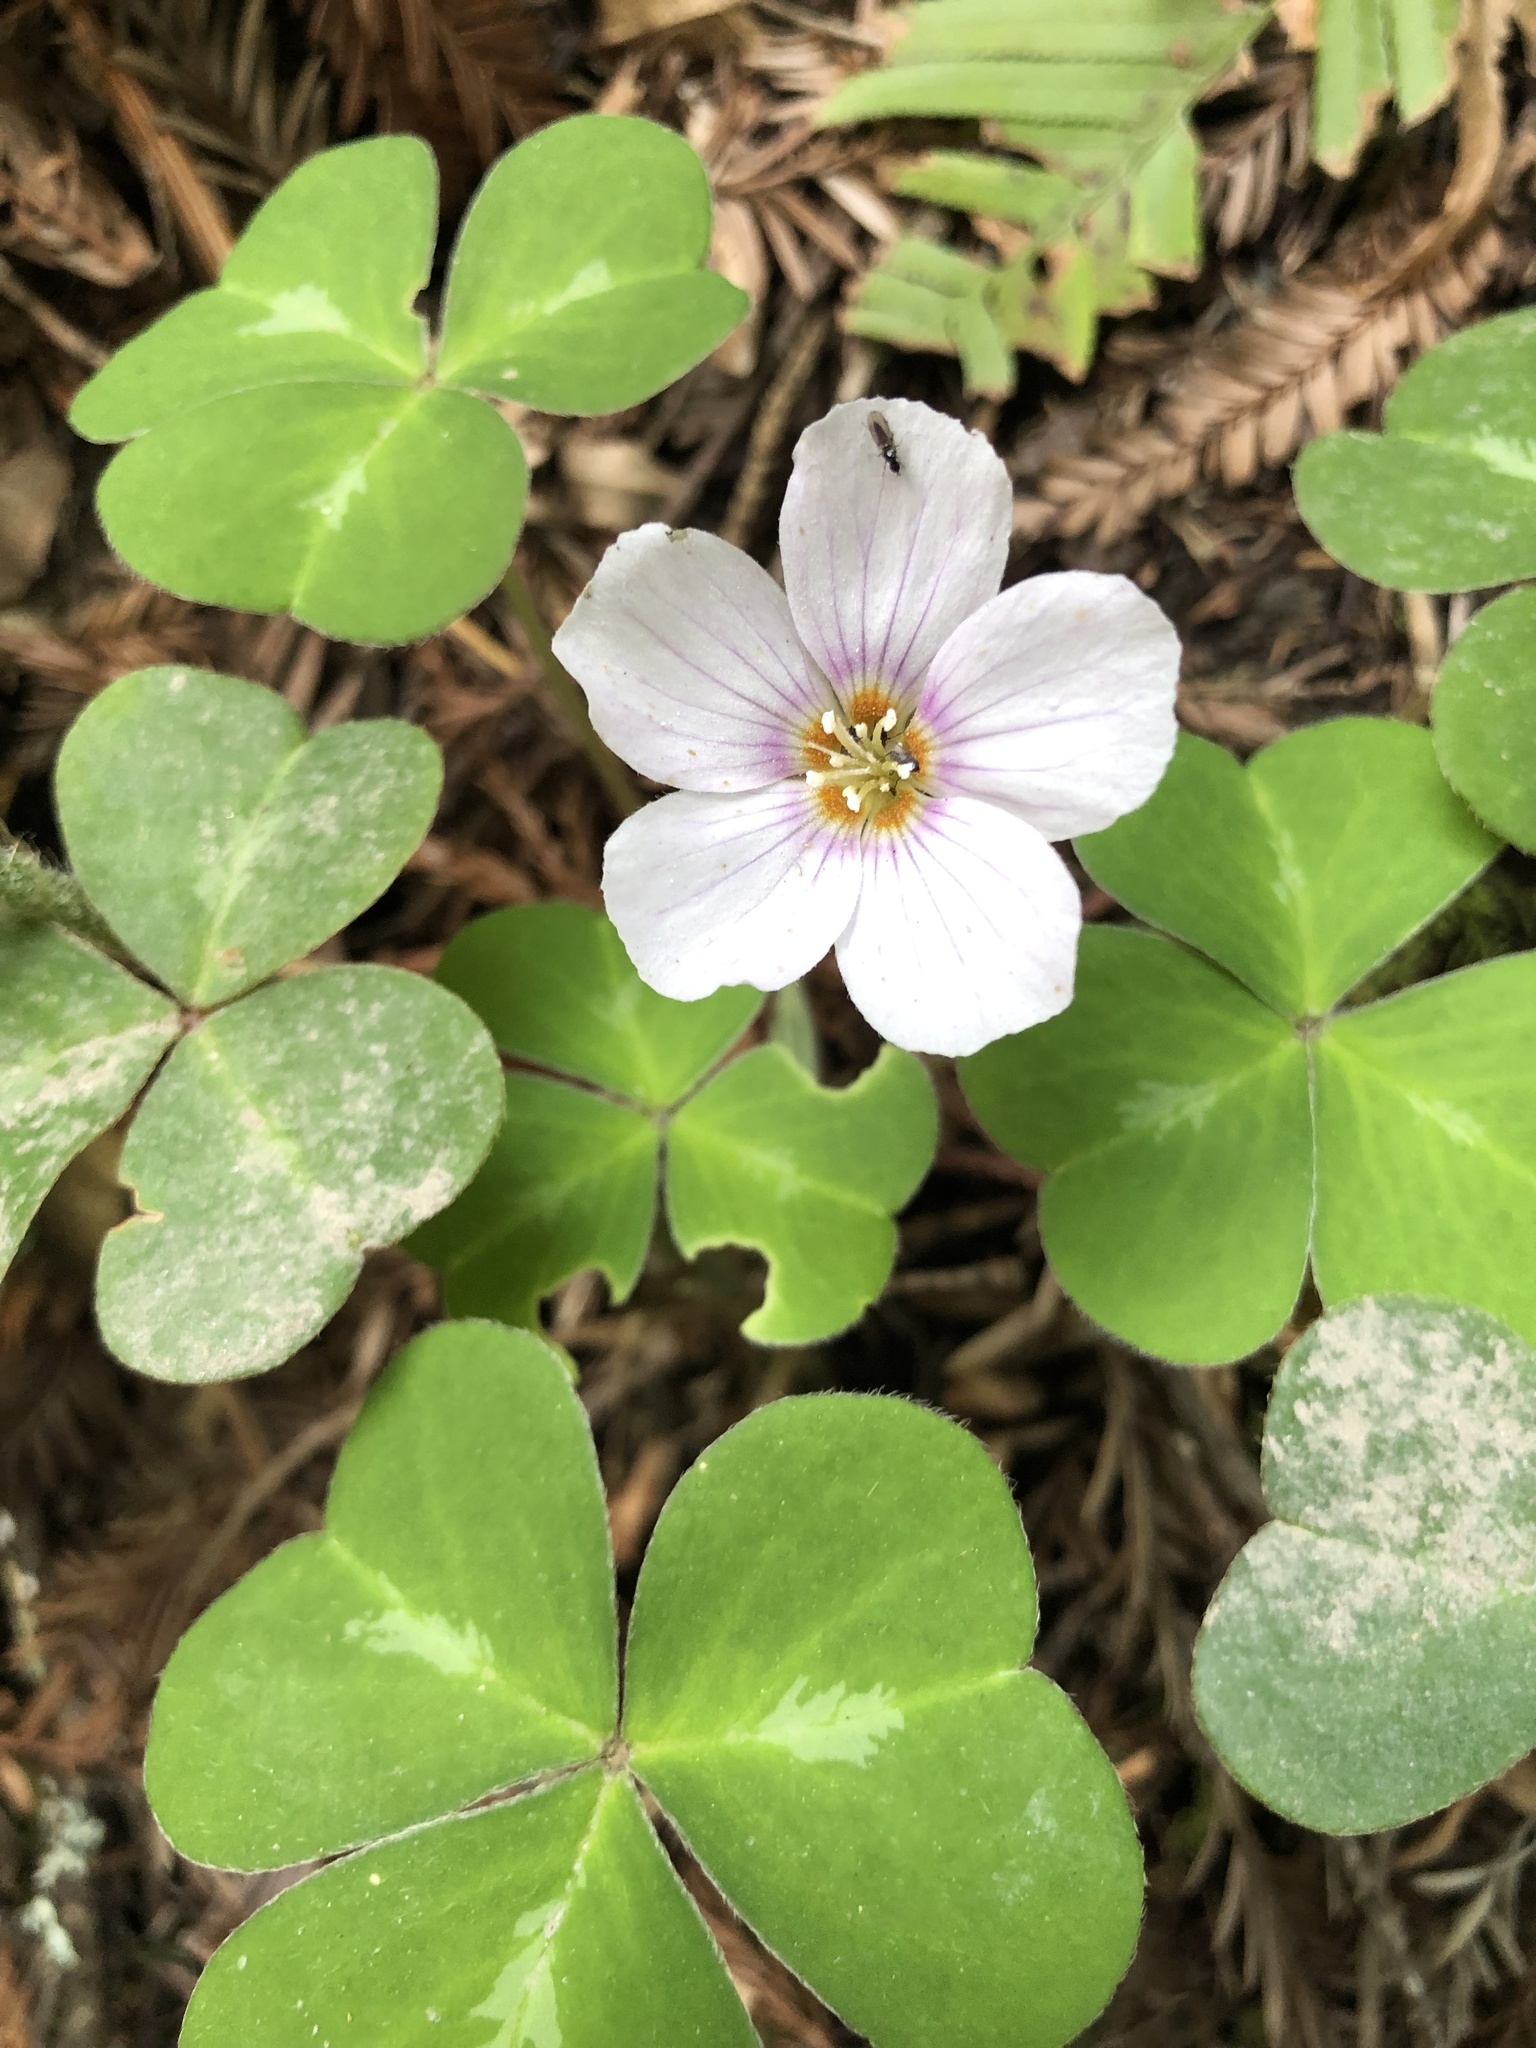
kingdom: Plantae
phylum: Tracheophyta
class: Magnoliopsida
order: Oxalidales
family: Oxalidaceae
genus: Oxalis
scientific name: Oxalis oregana
